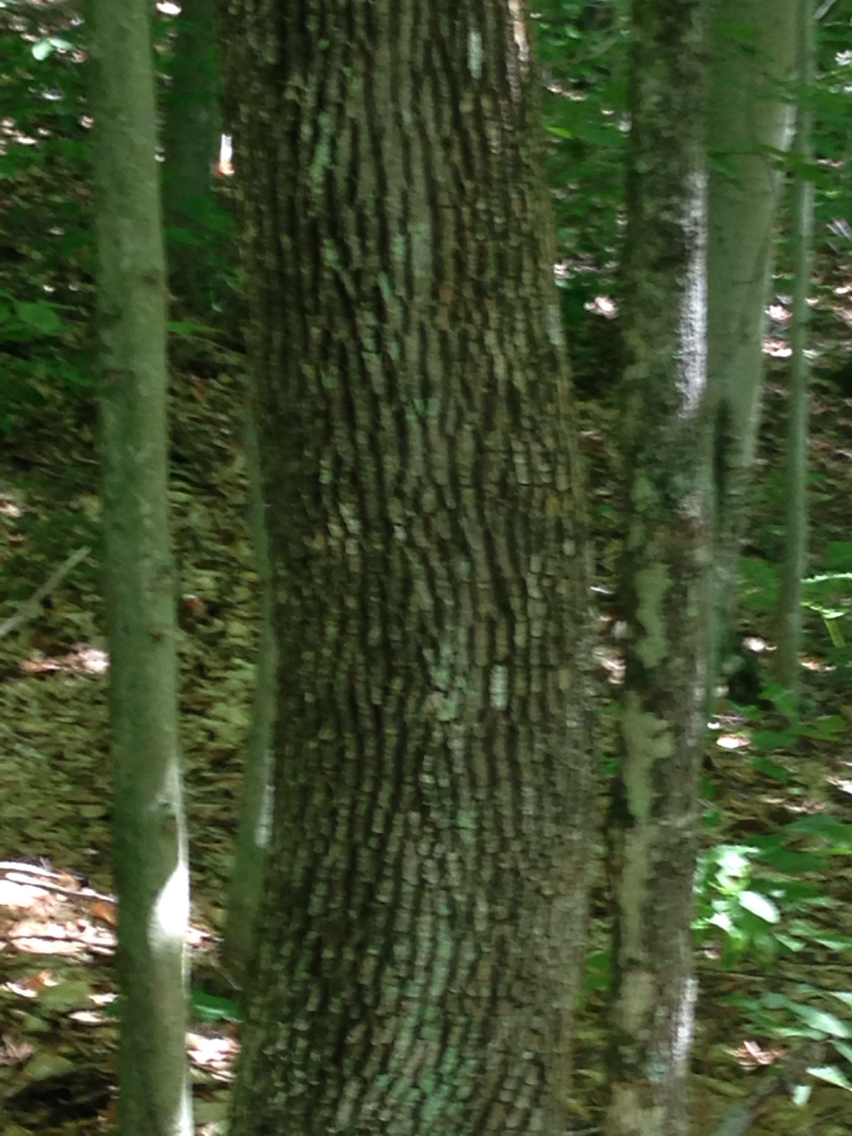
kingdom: Plantae
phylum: Tracheophyta
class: Magnoliopsida
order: Lamiales
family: Oleaceae
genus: Fraxinus
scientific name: Fraxinus americana
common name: White ash
